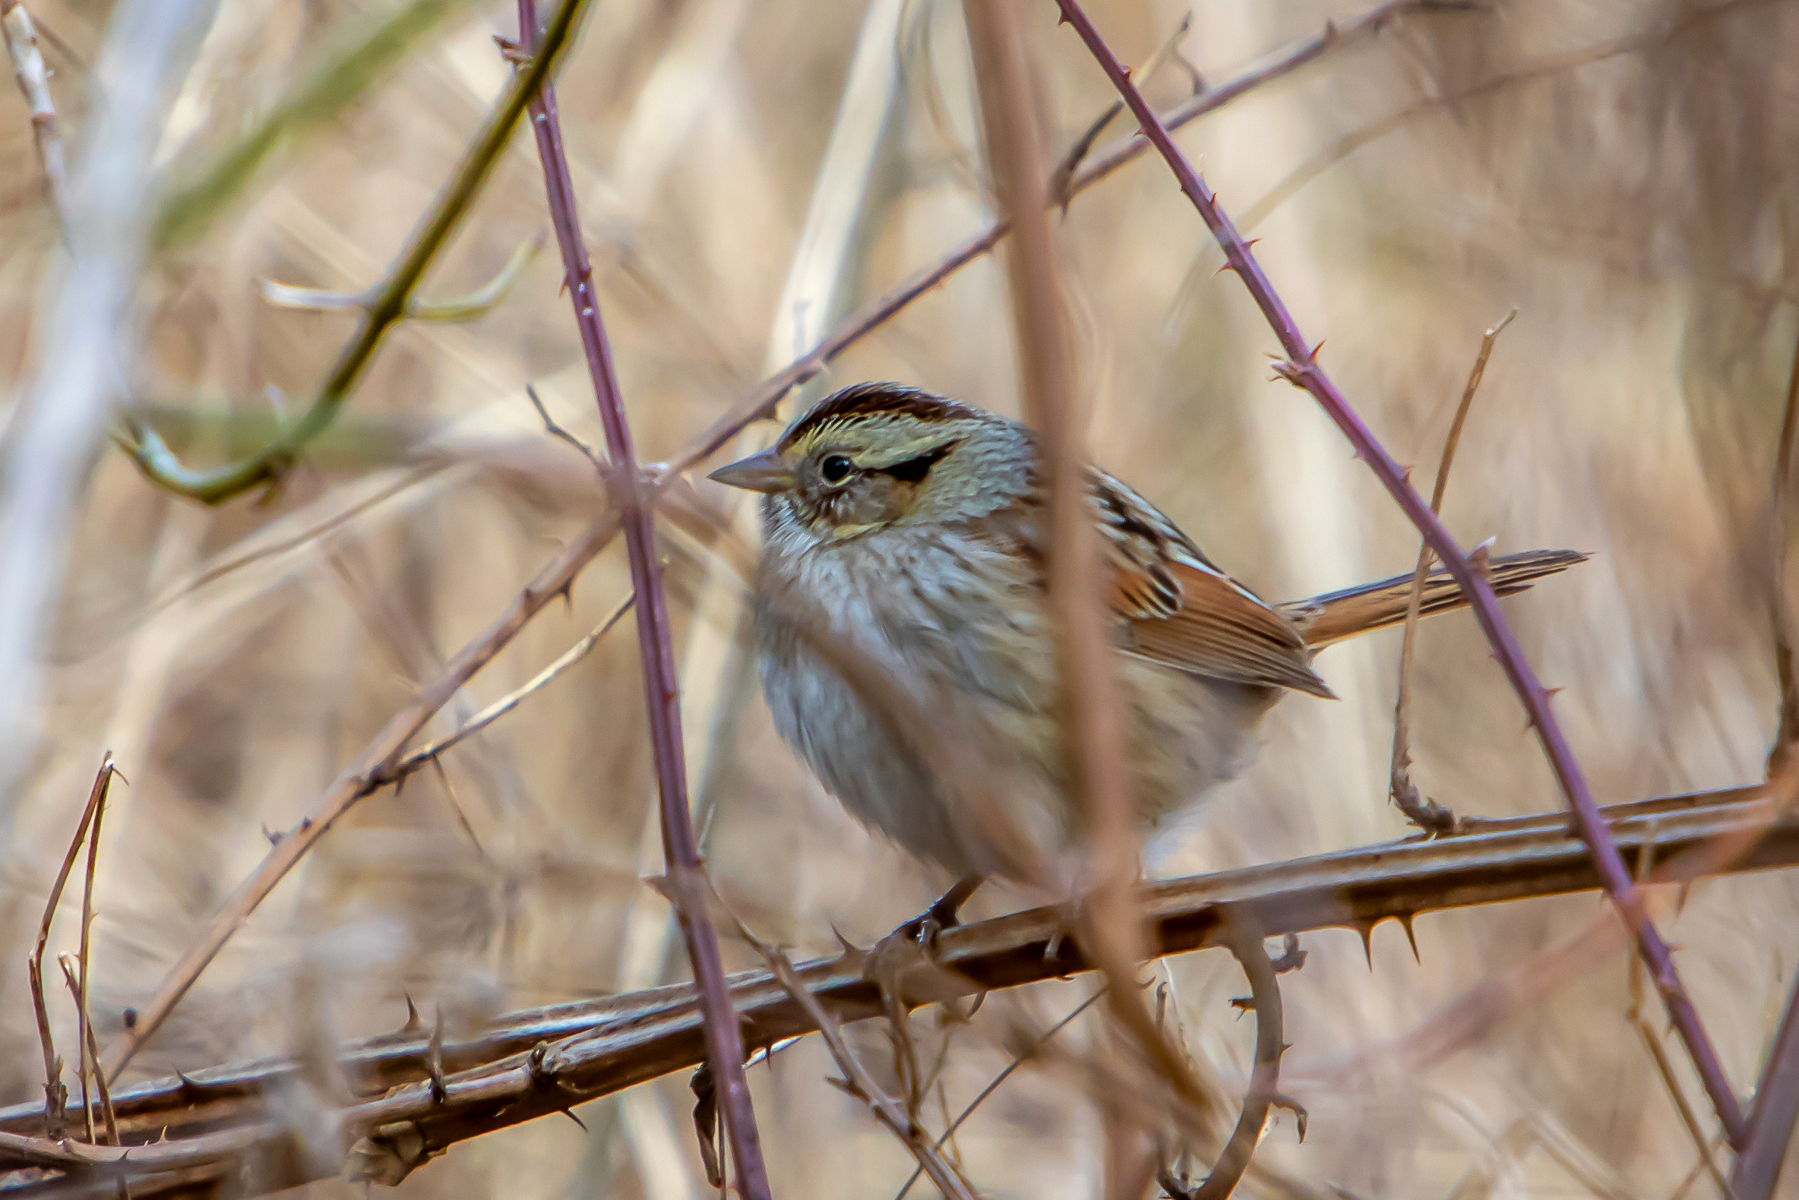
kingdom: Animalia
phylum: Chordata
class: Aves
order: Passeriformes
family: Passerellidae
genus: Melospiza
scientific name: Melospiza georgiana
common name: Swamp sparrow
